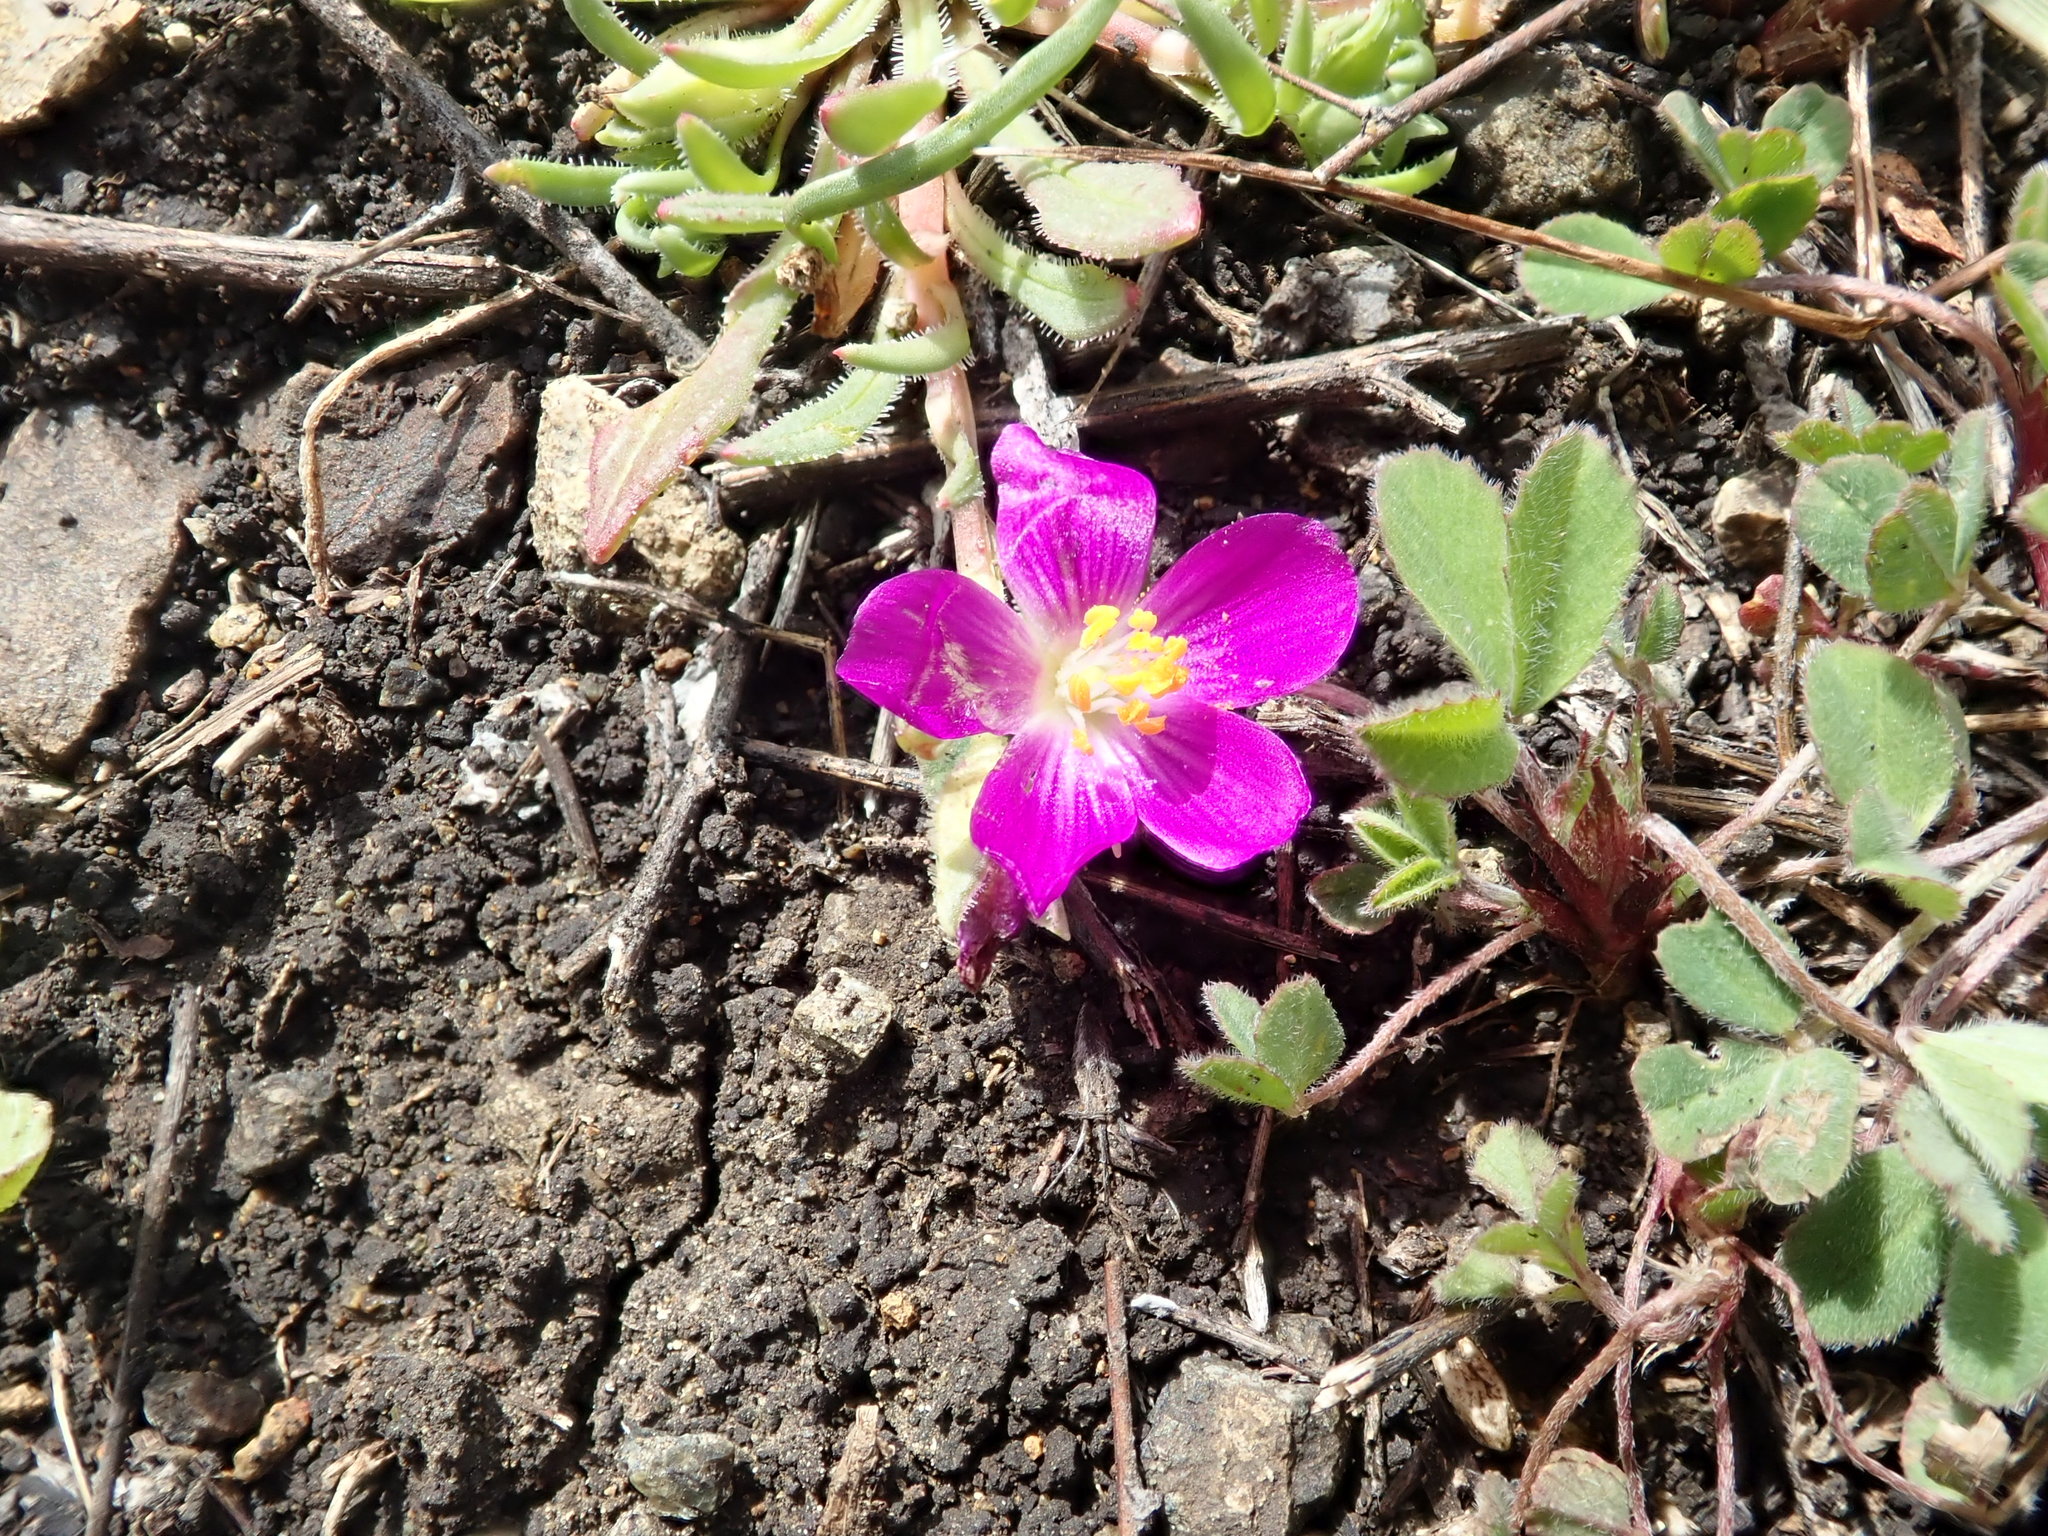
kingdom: Plantae
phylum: Tracheophyta
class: Magnoliopsida
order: Caryophyllales
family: Montiaceae
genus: Calandrinia
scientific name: Calandrinia menziesii
